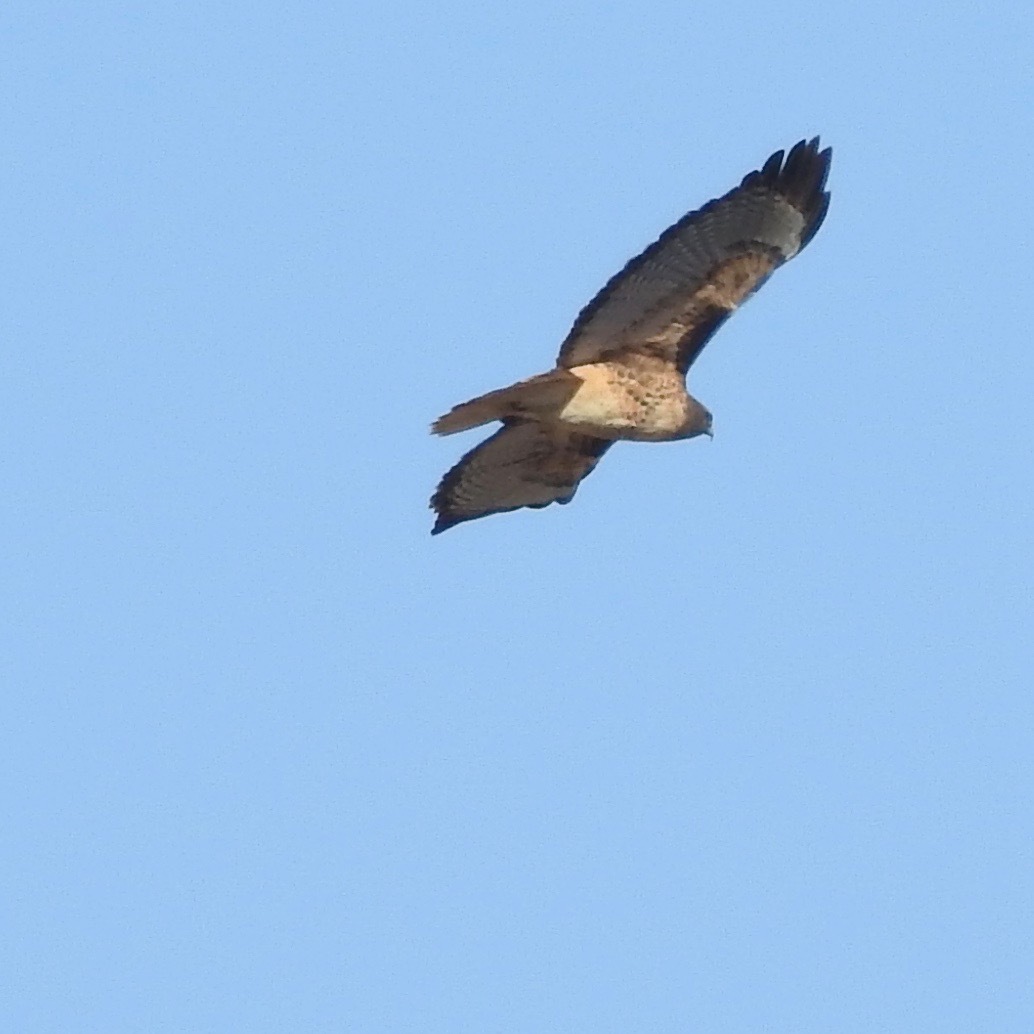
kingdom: Animalia
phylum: Chordata
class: Aves
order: Accipitriformes
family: Accipitridae
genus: Buteo
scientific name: Buteo jamaicensis
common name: Red-tailed hawk
